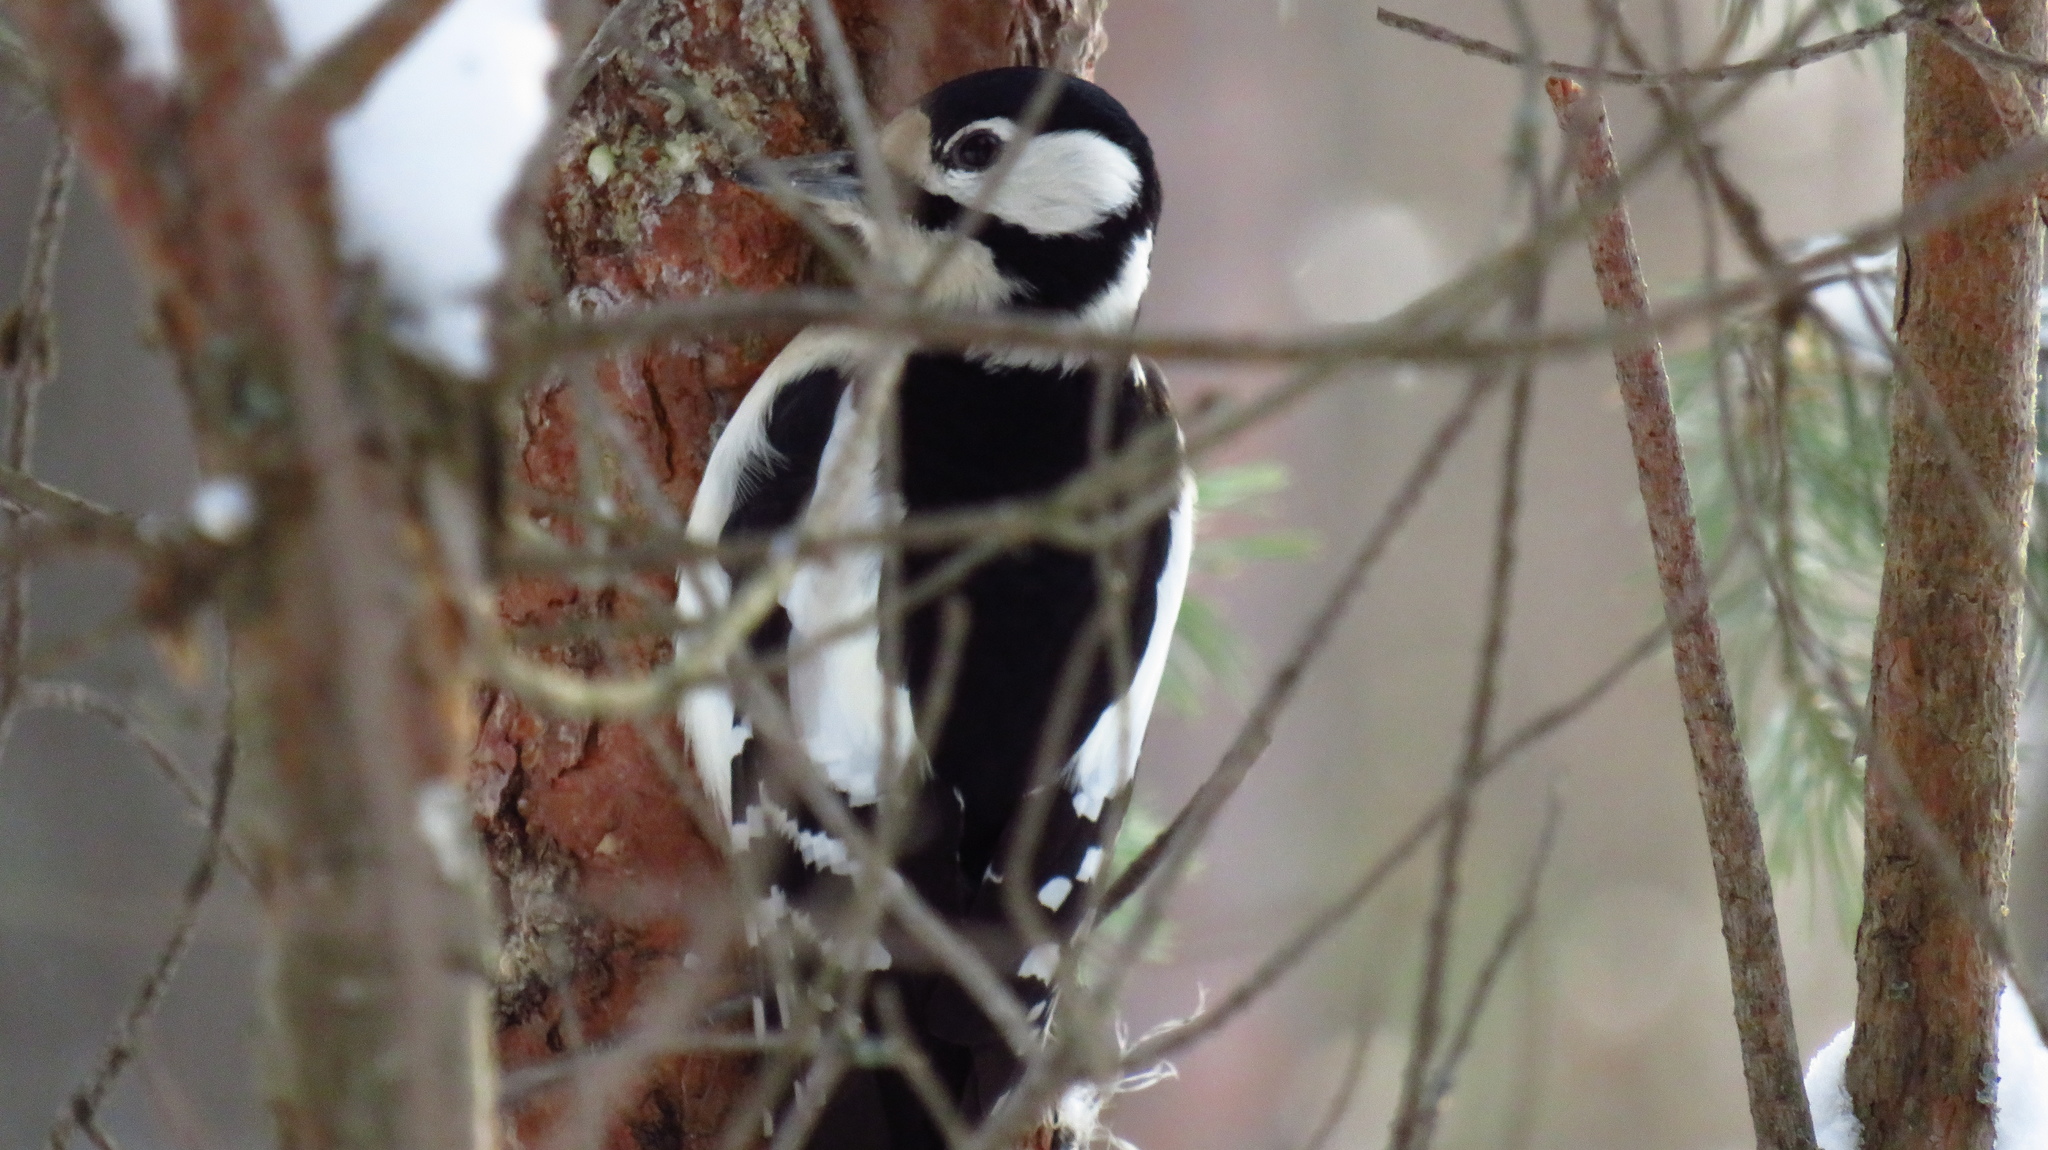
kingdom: Animalia
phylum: Chordata
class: Aves
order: Piciformes
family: Picidae
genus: Dendrocopos
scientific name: Dendrocopos major
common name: Great spotted woodpecker
